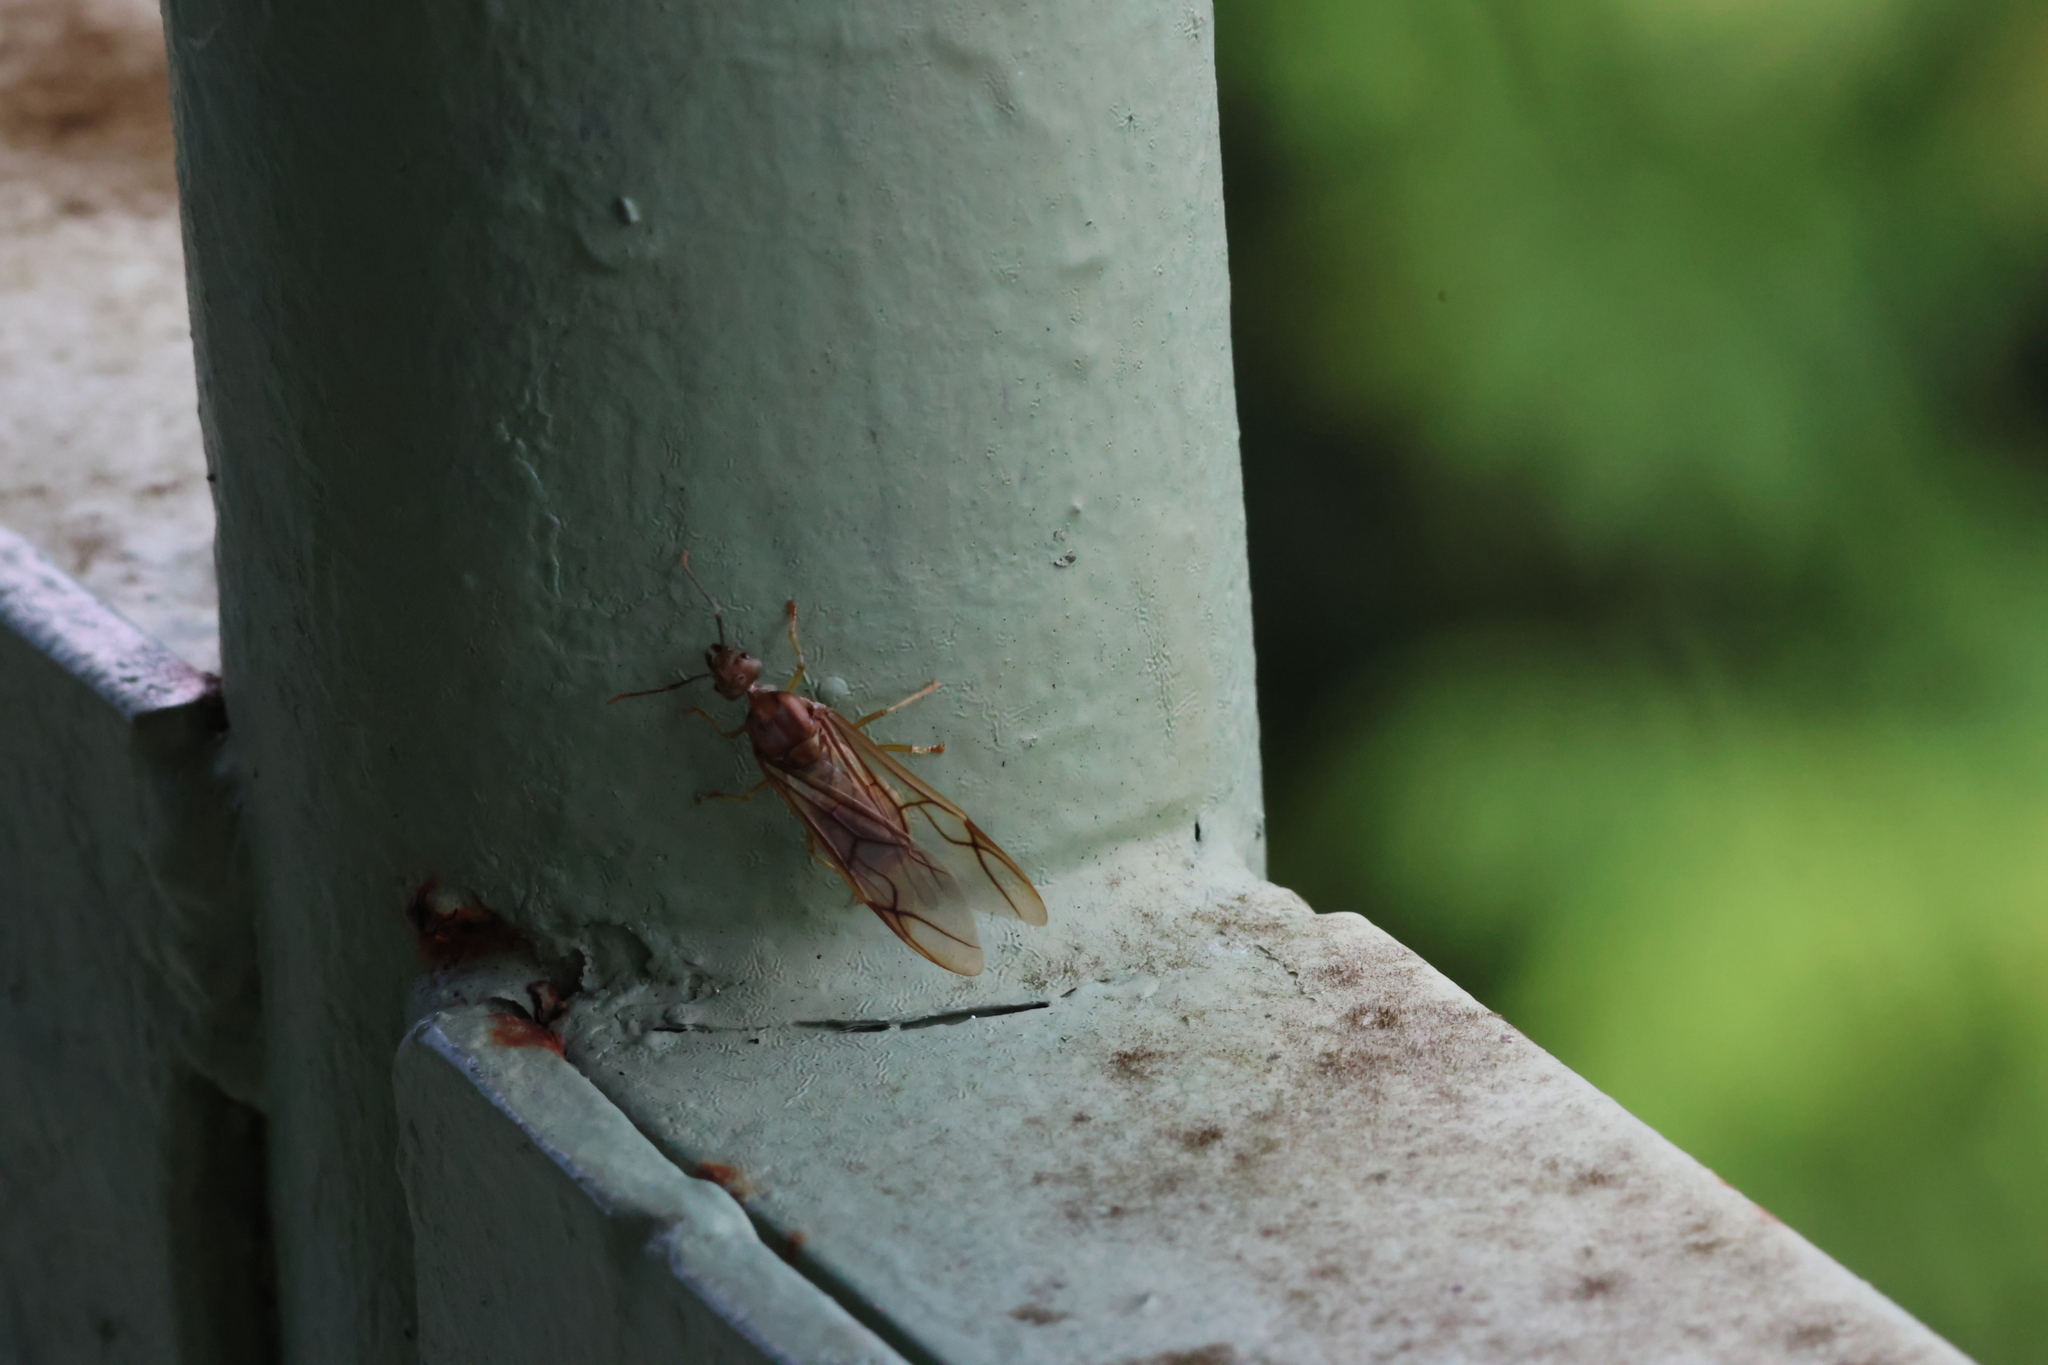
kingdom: Animalia
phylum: Arthropoda
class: Insecta
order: Hymenoptera
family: Formicidae
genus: Oecophylla
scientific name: Oecophylla smaragdina
